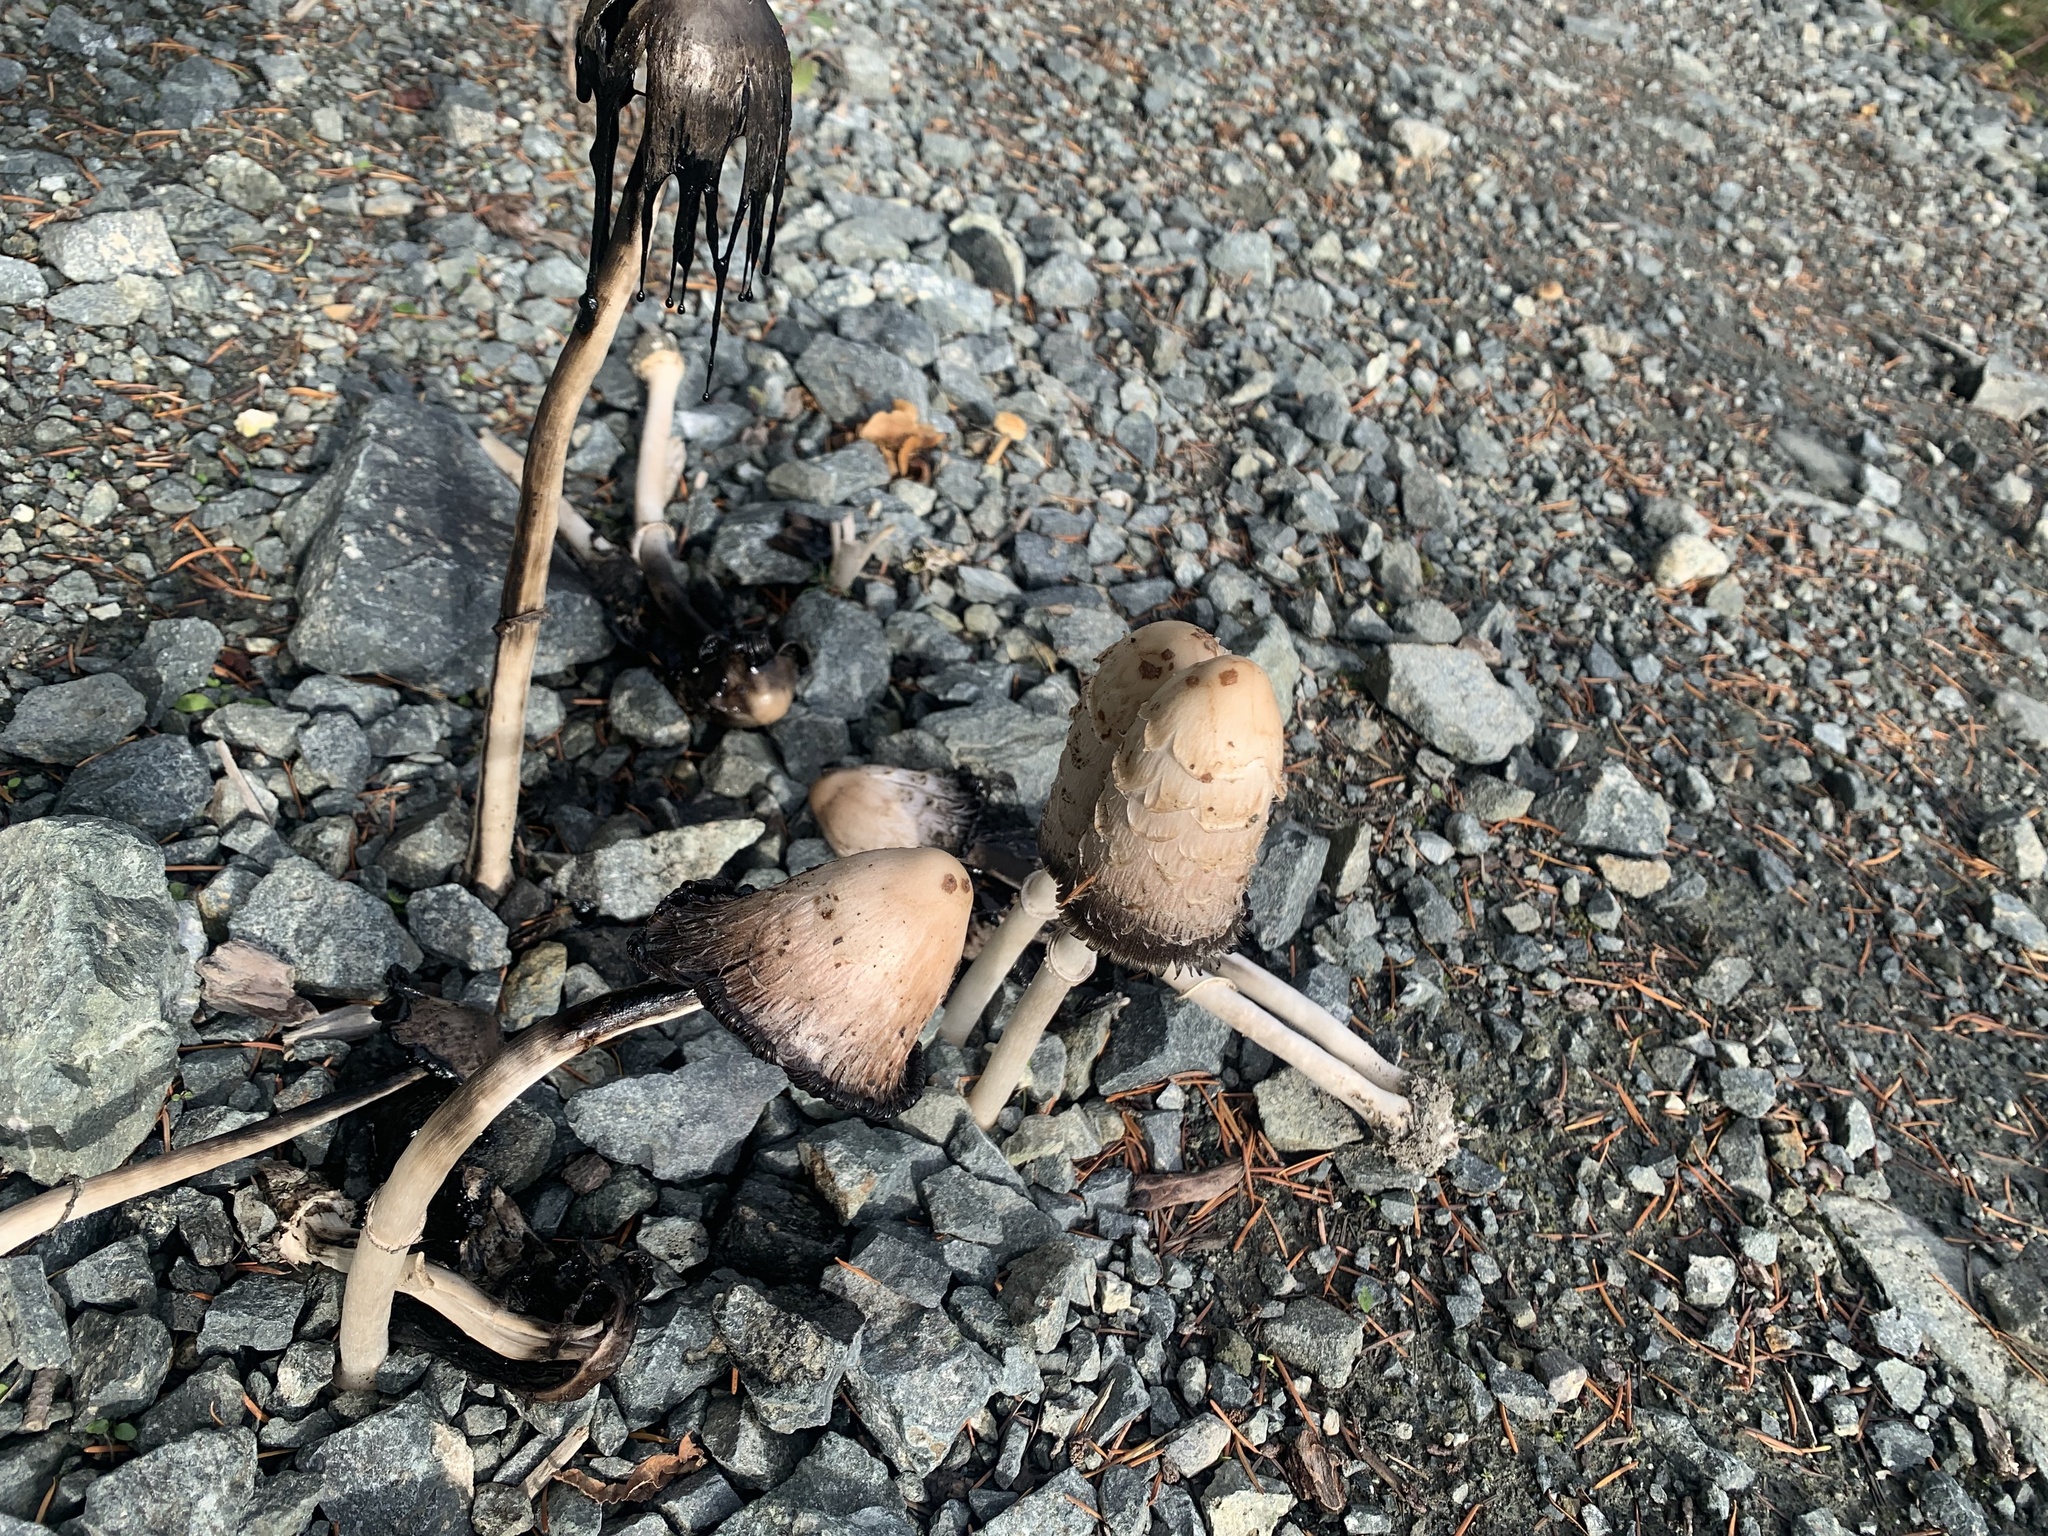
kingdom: Fungi
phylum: Basidiomycota
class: Agaricomycetes
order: Agaricales
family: Agaricaceae
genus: Coprinus
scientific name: Coprinus comatus
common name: Lawyer's wig
